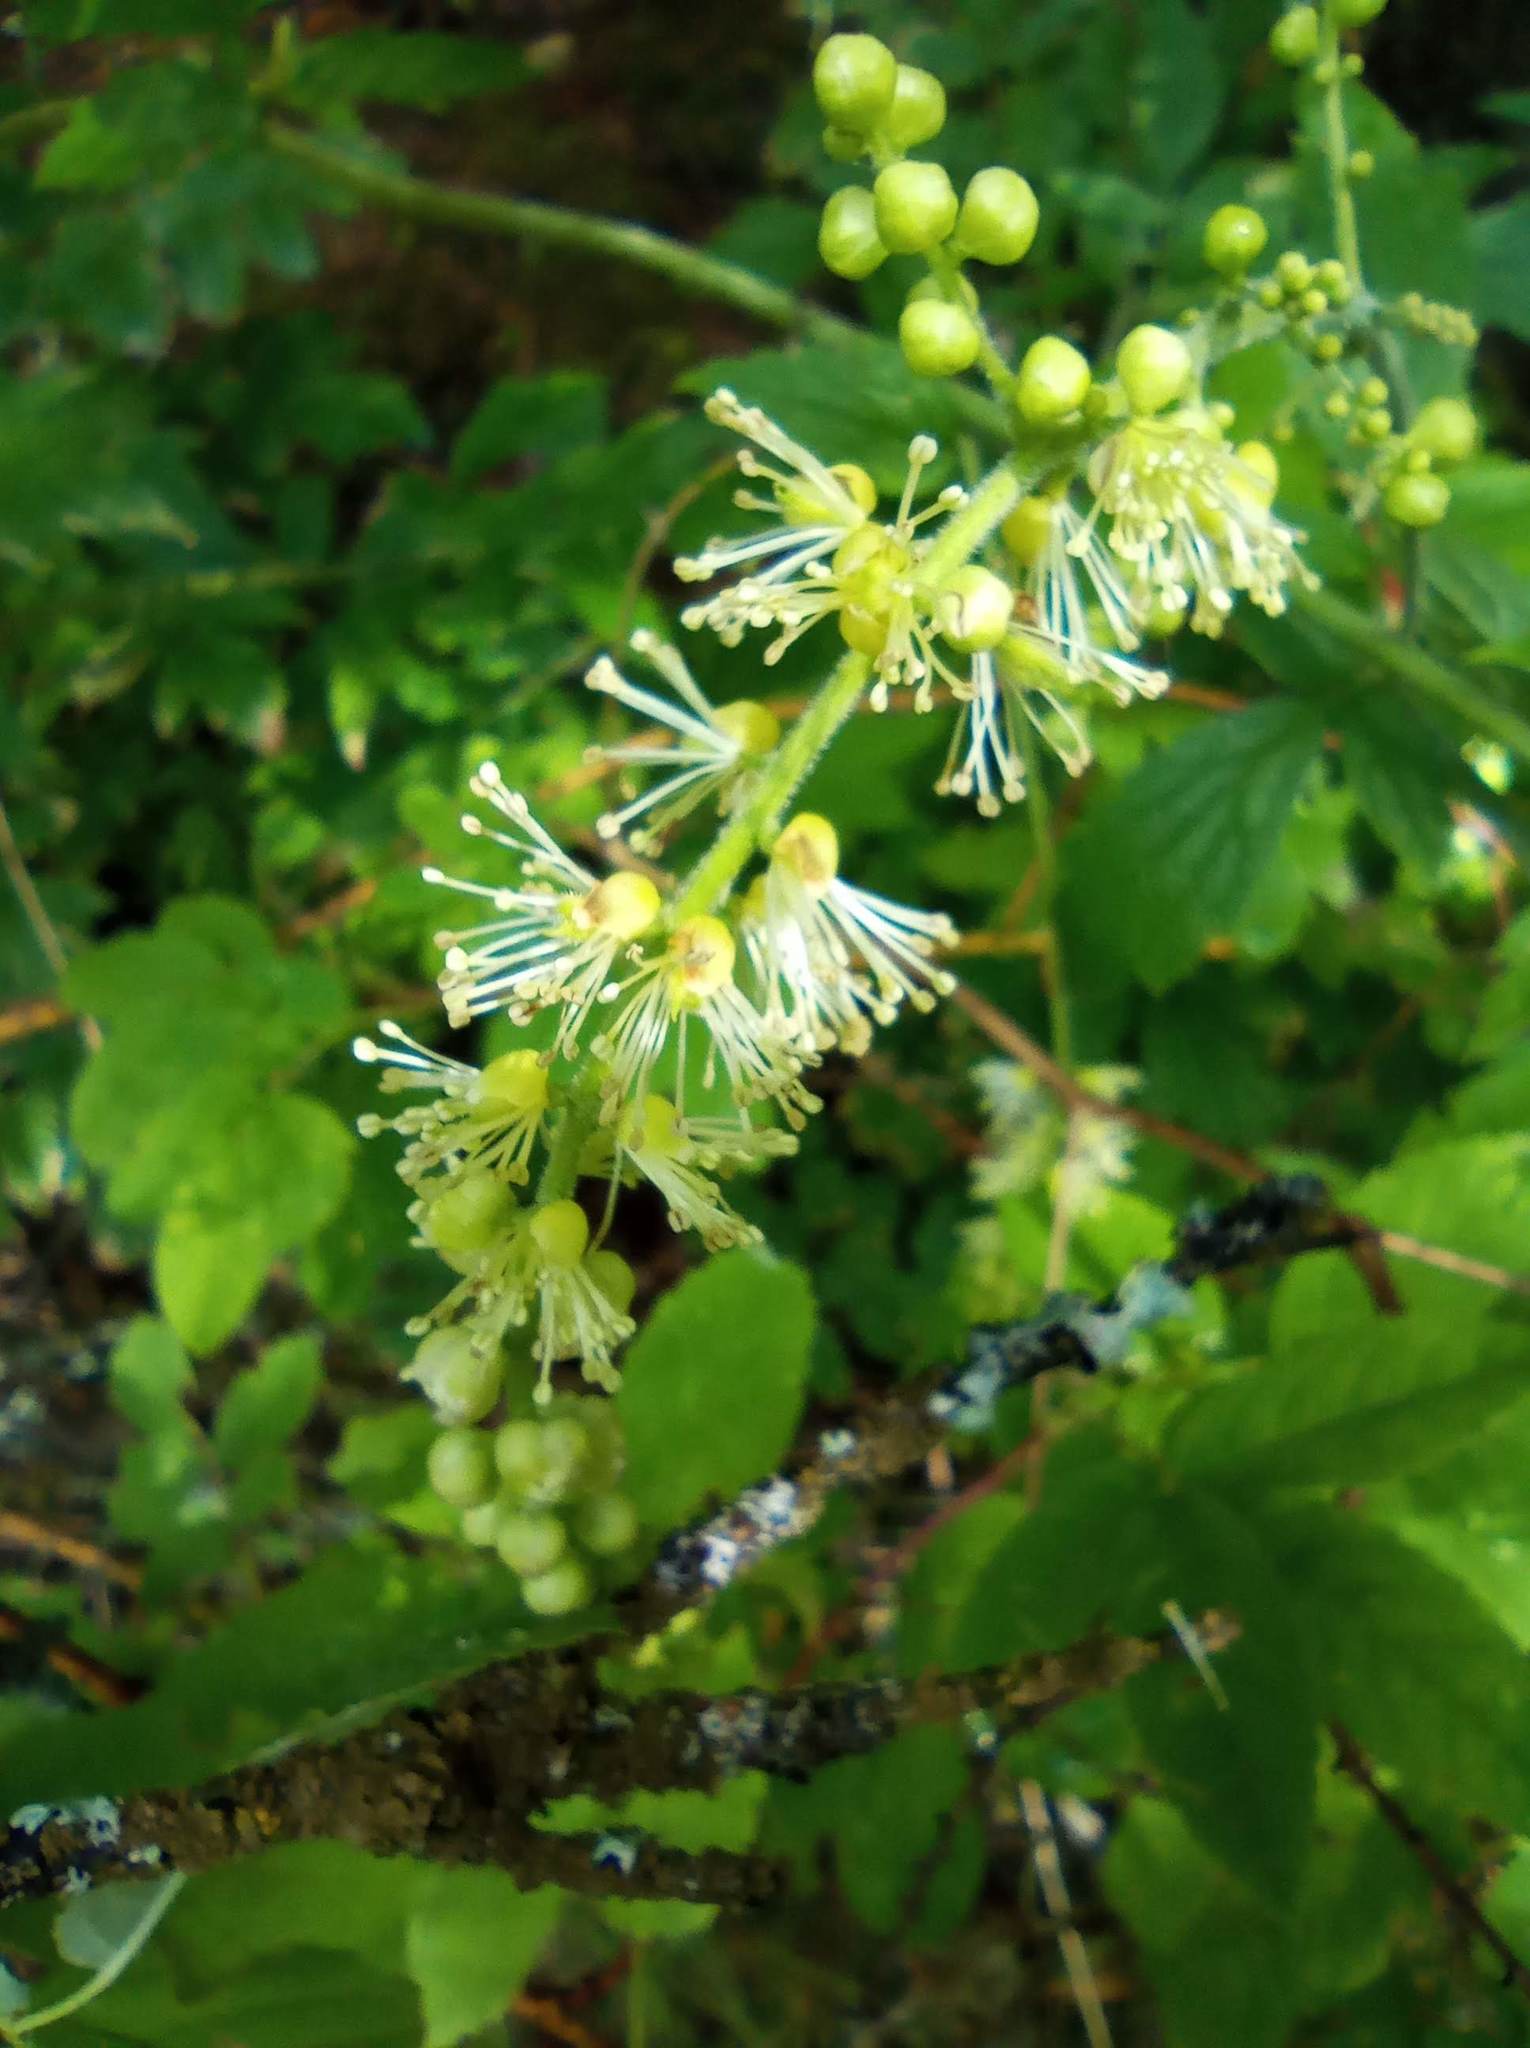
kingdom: Plantae
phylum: Tracheophyta
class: Magnoliopsida
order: Ranunculales
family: Ranunculaceae
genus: Actaea
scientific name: Actaea cimicifuga
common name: Chinese cimicifuga
